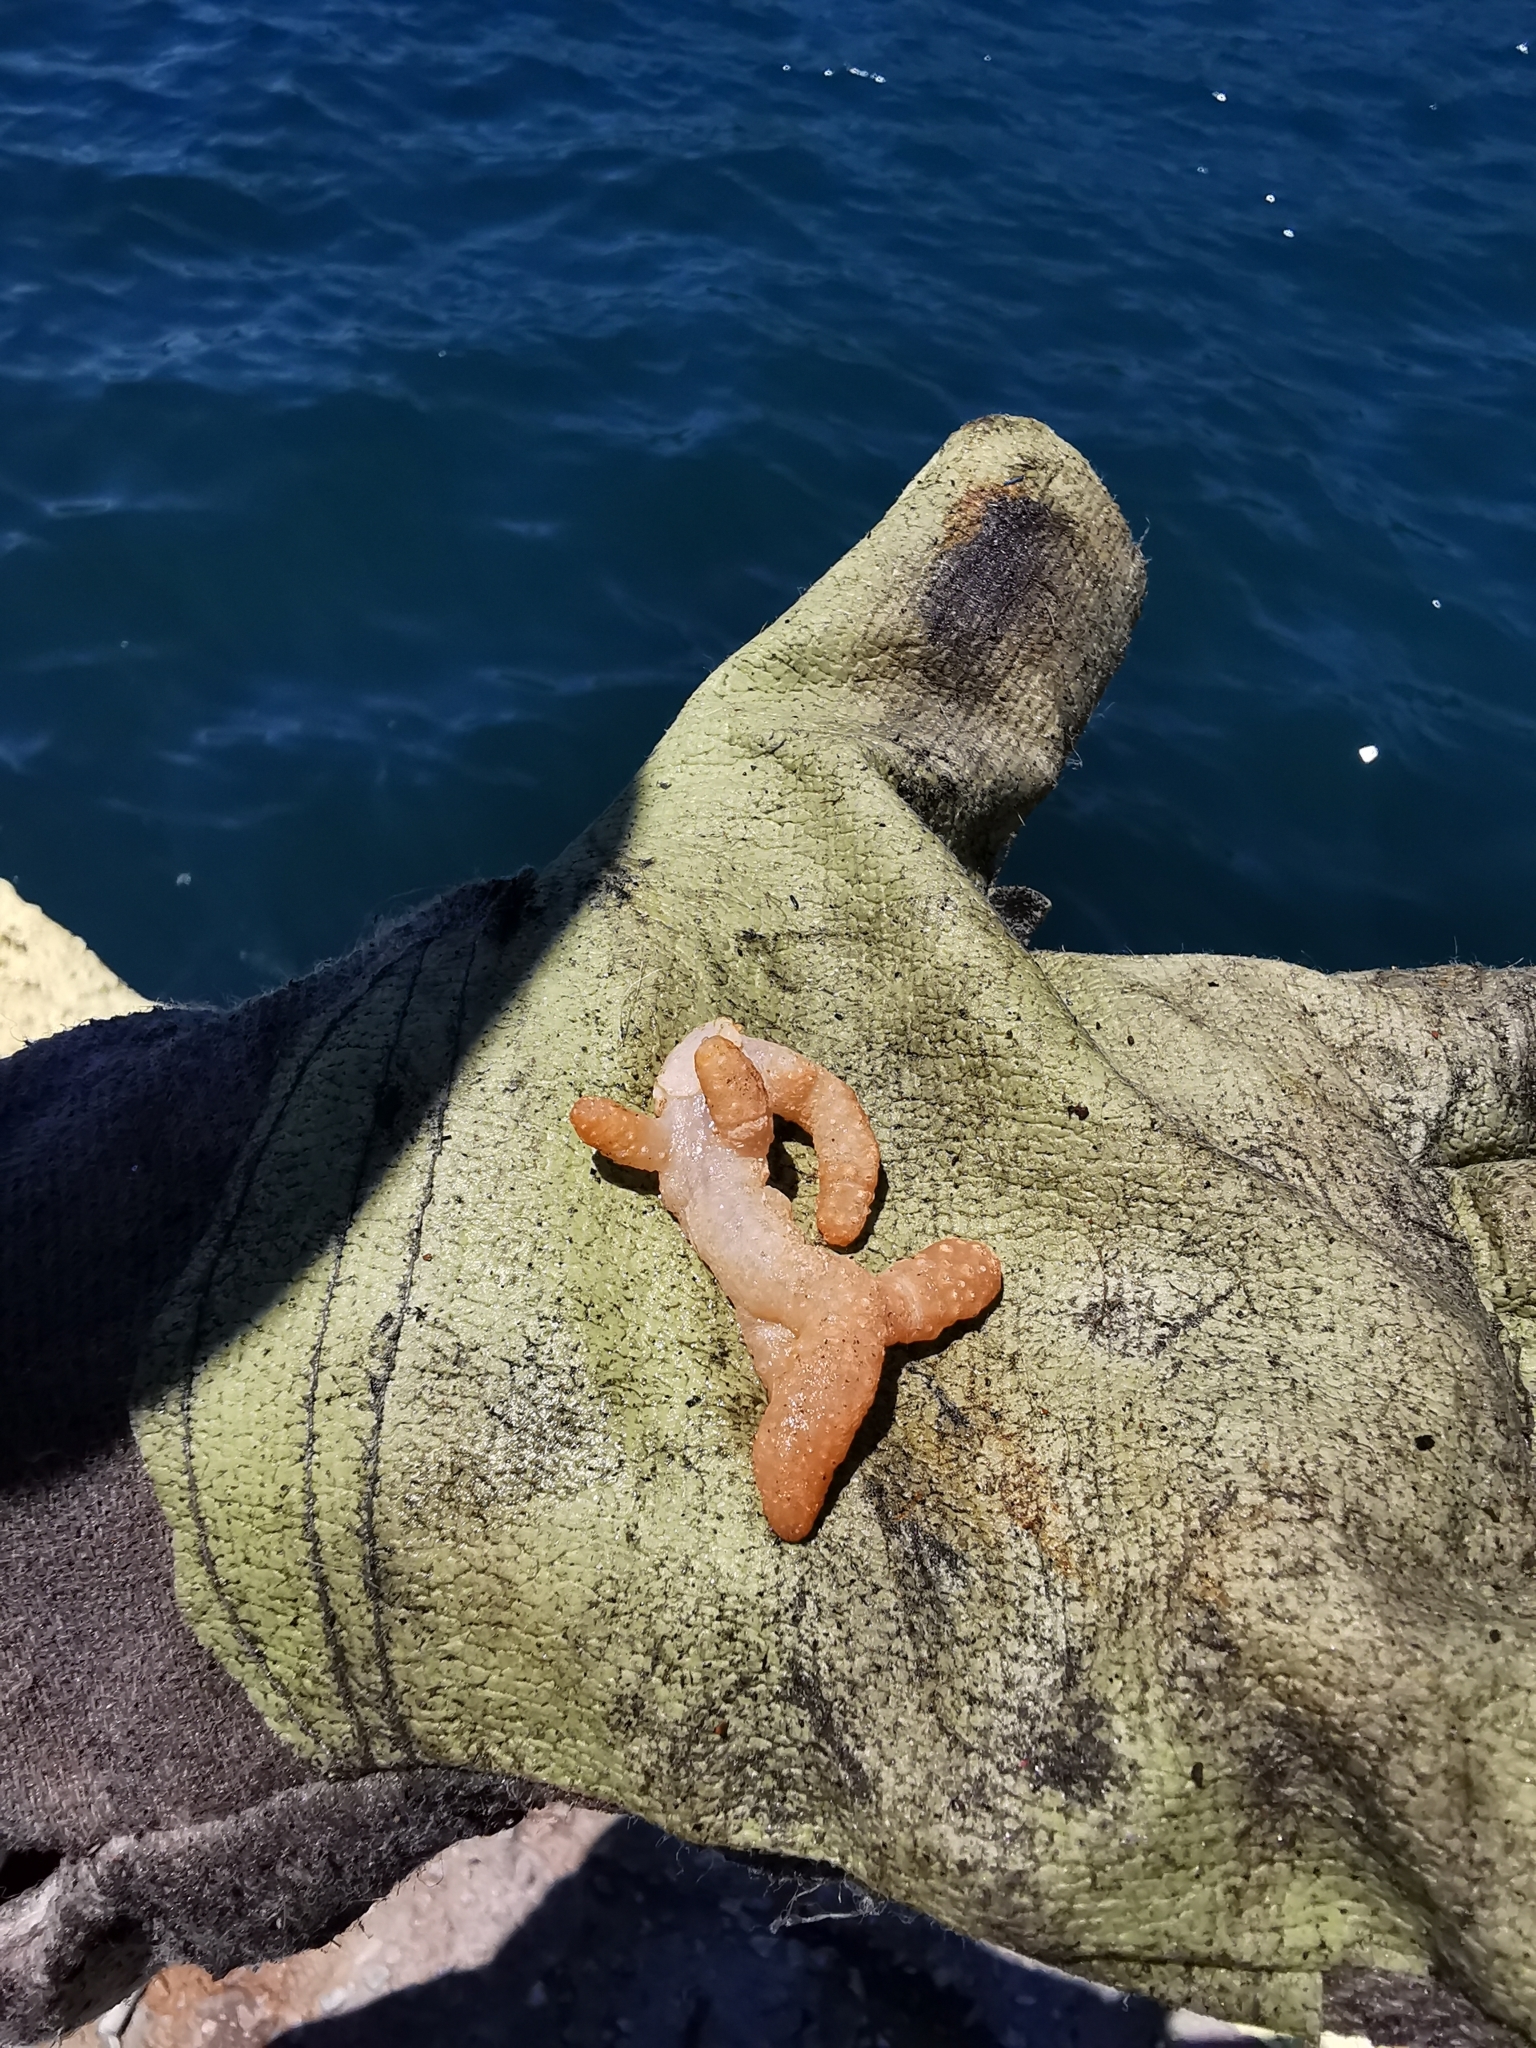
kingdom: Animalia
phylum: Cnidaria
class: Anthozoa
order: Malacalcyonacea
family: Alcyoniidae
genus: Alcyonium
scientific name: Alcyonium palmatum
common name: Mediterranean sea-fingers
